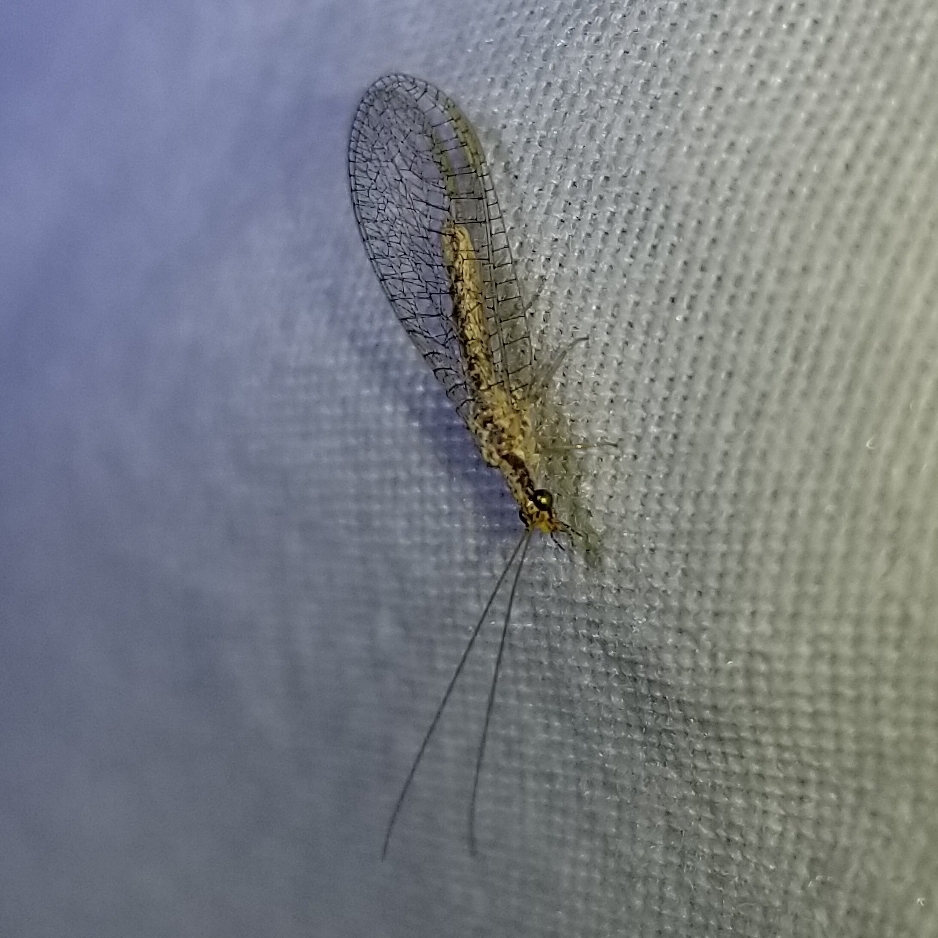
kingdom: Animalia
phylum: Arthropoda
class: Insecta
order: Neuroptera
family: Chrysopidae
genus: Eremochrysa
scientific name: Eremochrysa punctinervis
